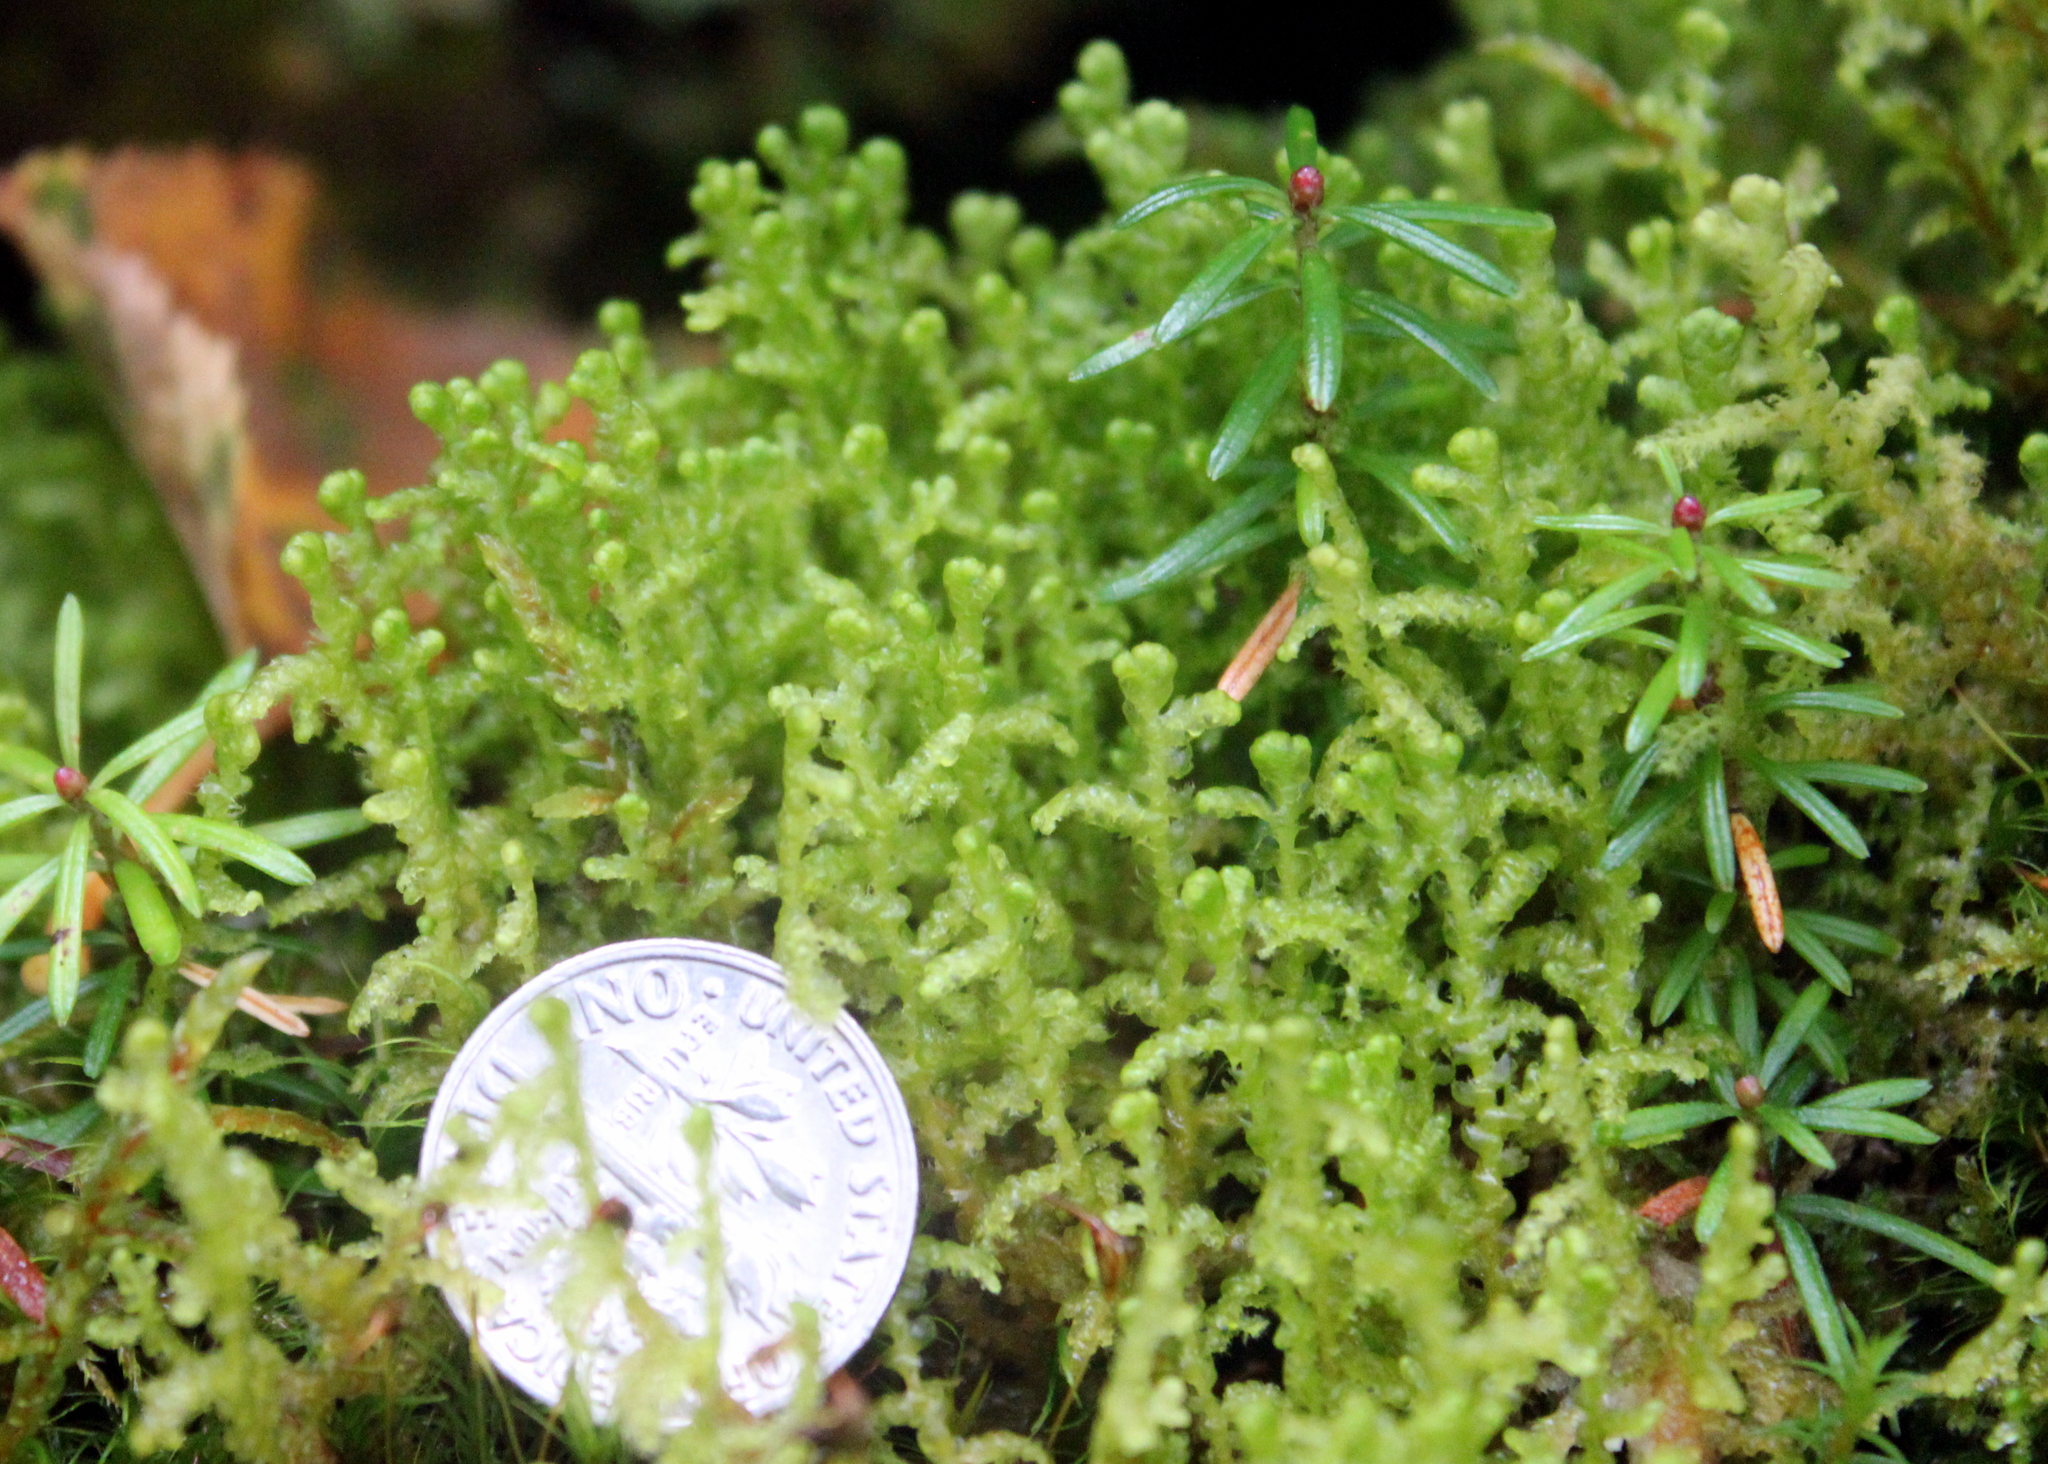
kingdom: Plantae
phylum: Marchantiophyta
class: Jungermanniopsida
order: Ptilidiales
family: Ptilidiaceae
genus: Ptilidium
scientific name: Ptilidium ciliare
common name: Ciliate fringewort
